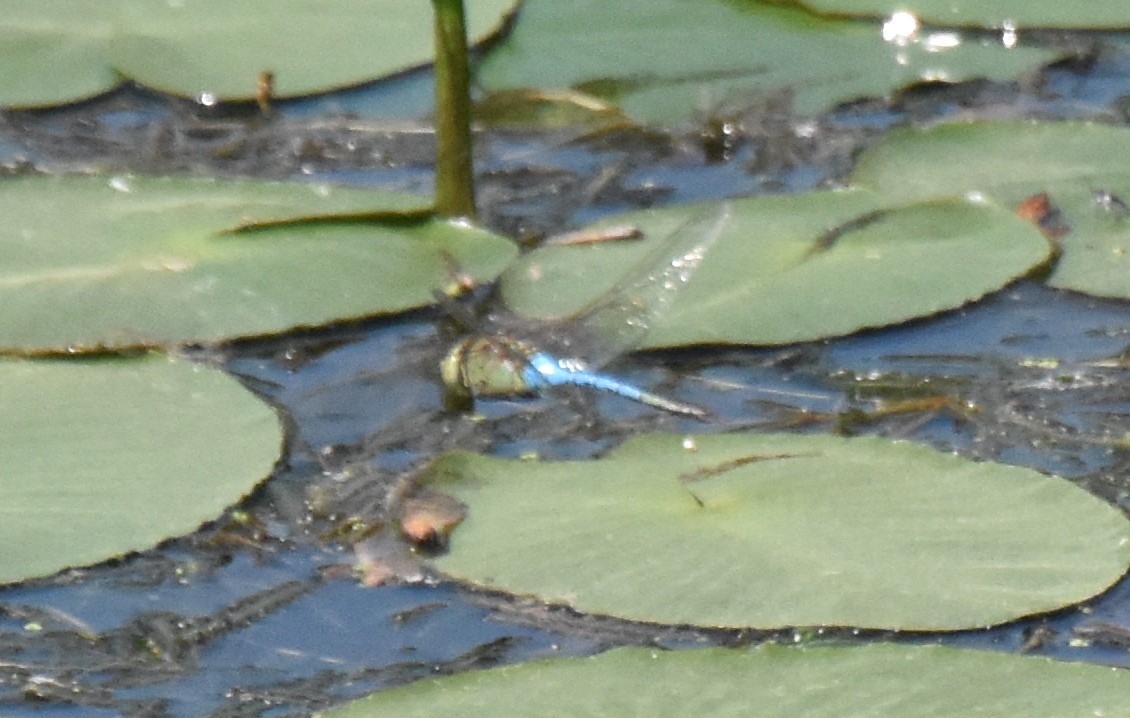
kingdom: Animalia
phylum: Arthropoda
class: Insecta
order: Odonata
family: Aeshnidae
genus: Anax
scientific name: Anax junius
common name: Common green darner
